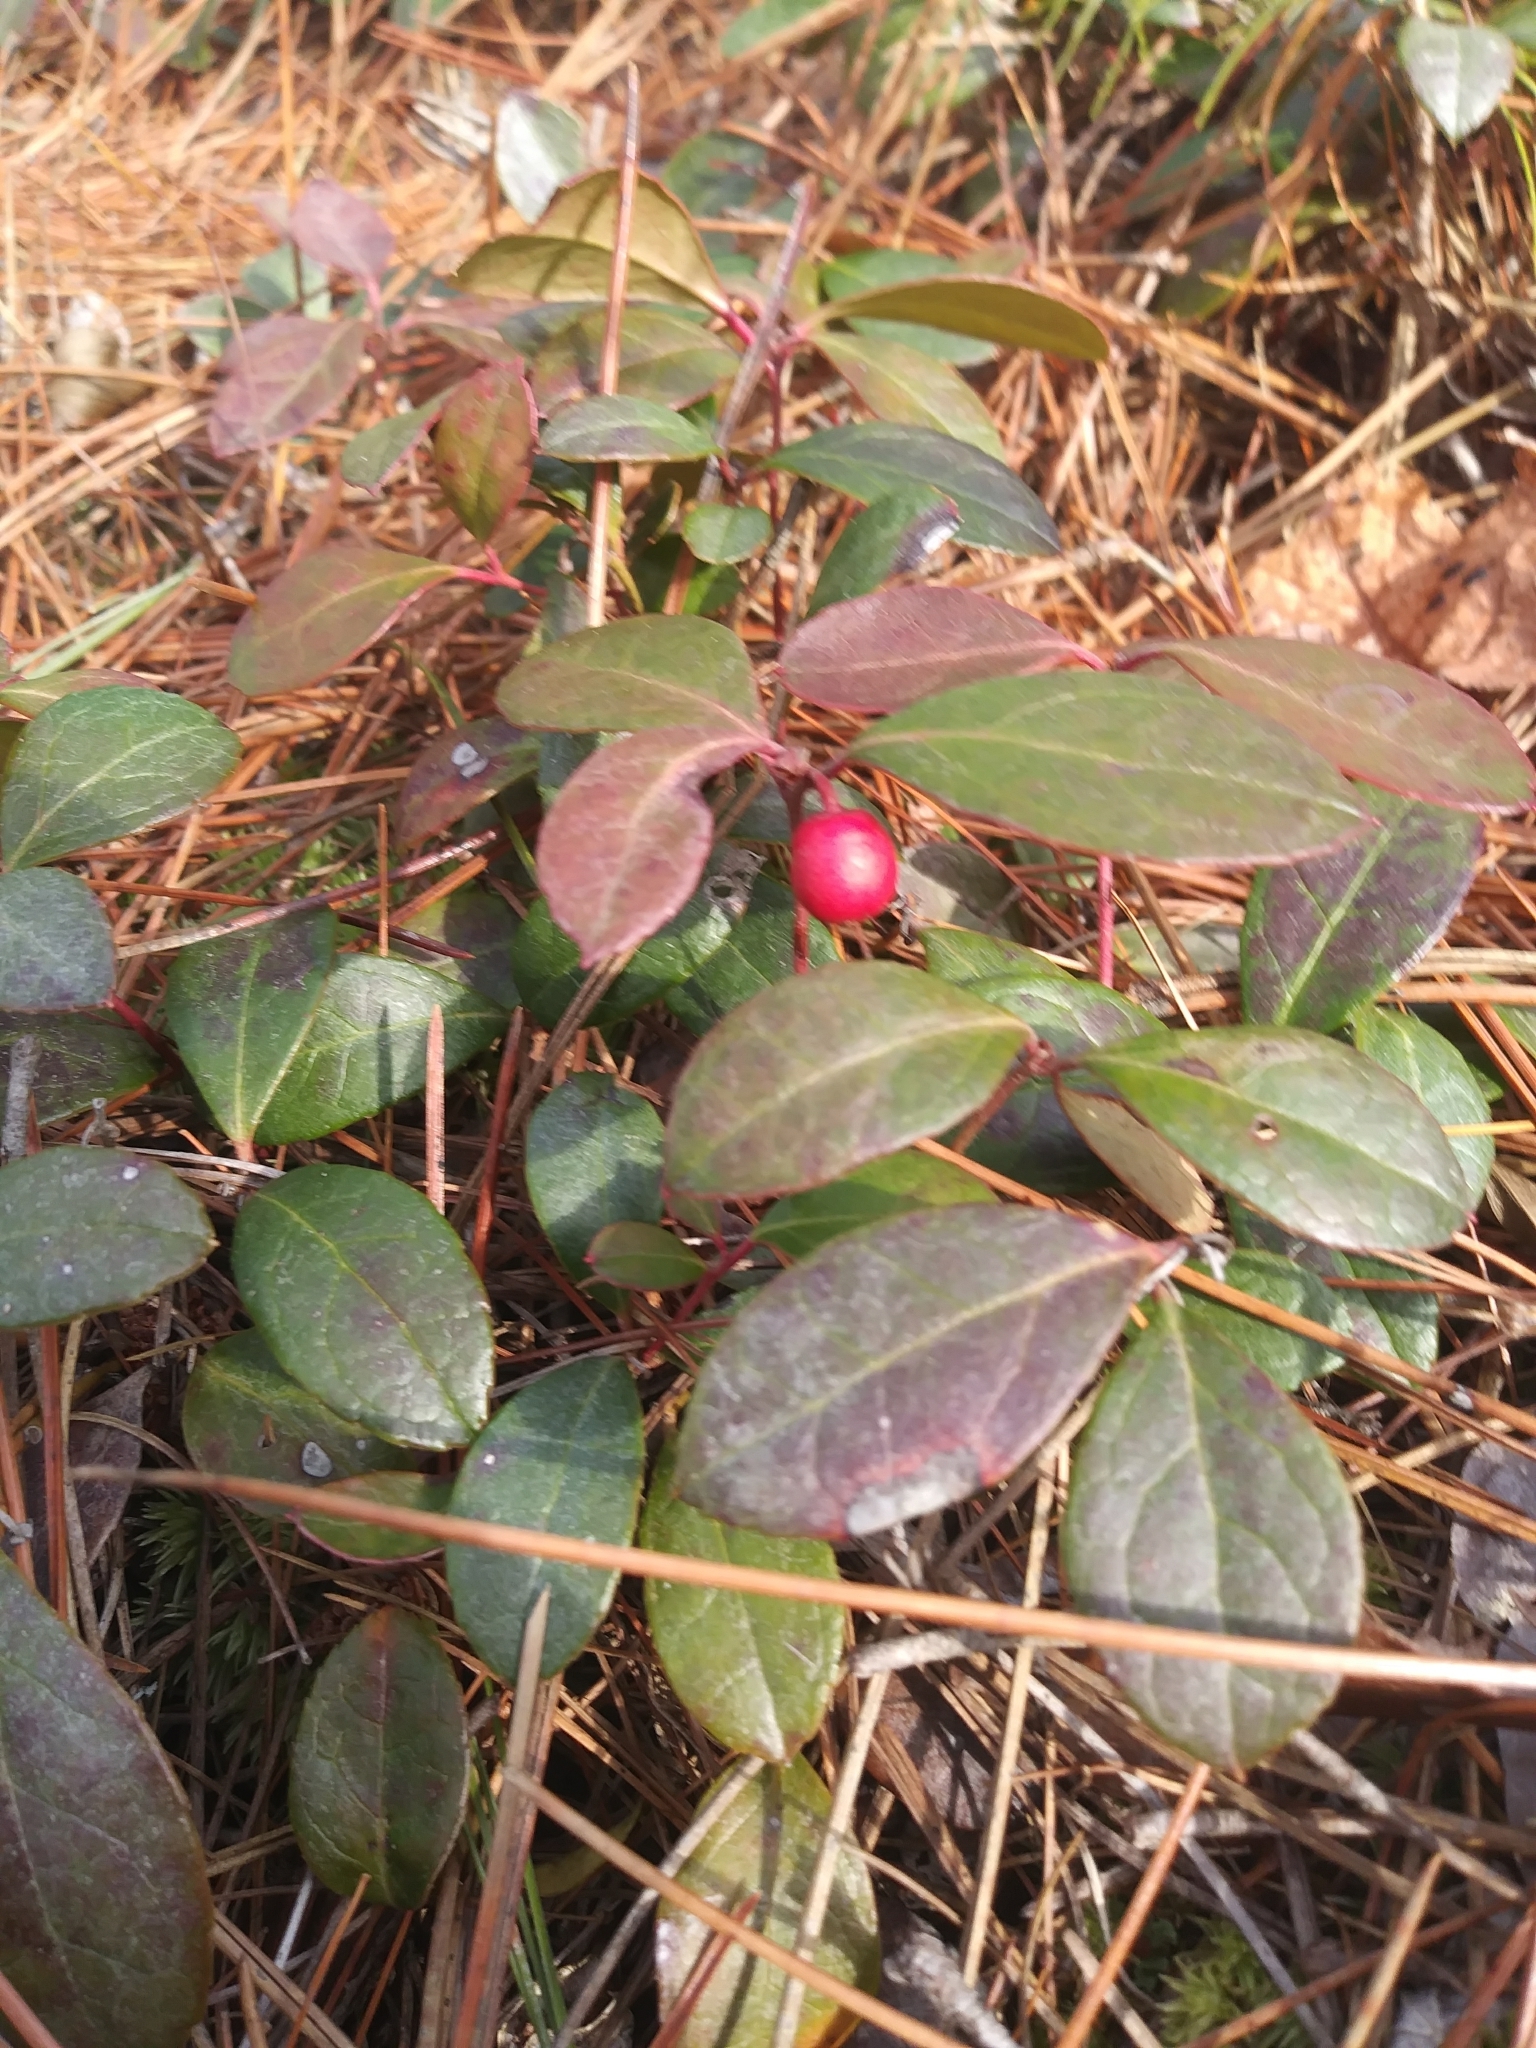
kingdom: Plantae
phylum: Tracheophyta
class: Magnoliopsida
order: Ericales
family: Ericaceae
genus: Gaultheria
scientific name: Gaultheria procumbens
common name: Checkerberry
